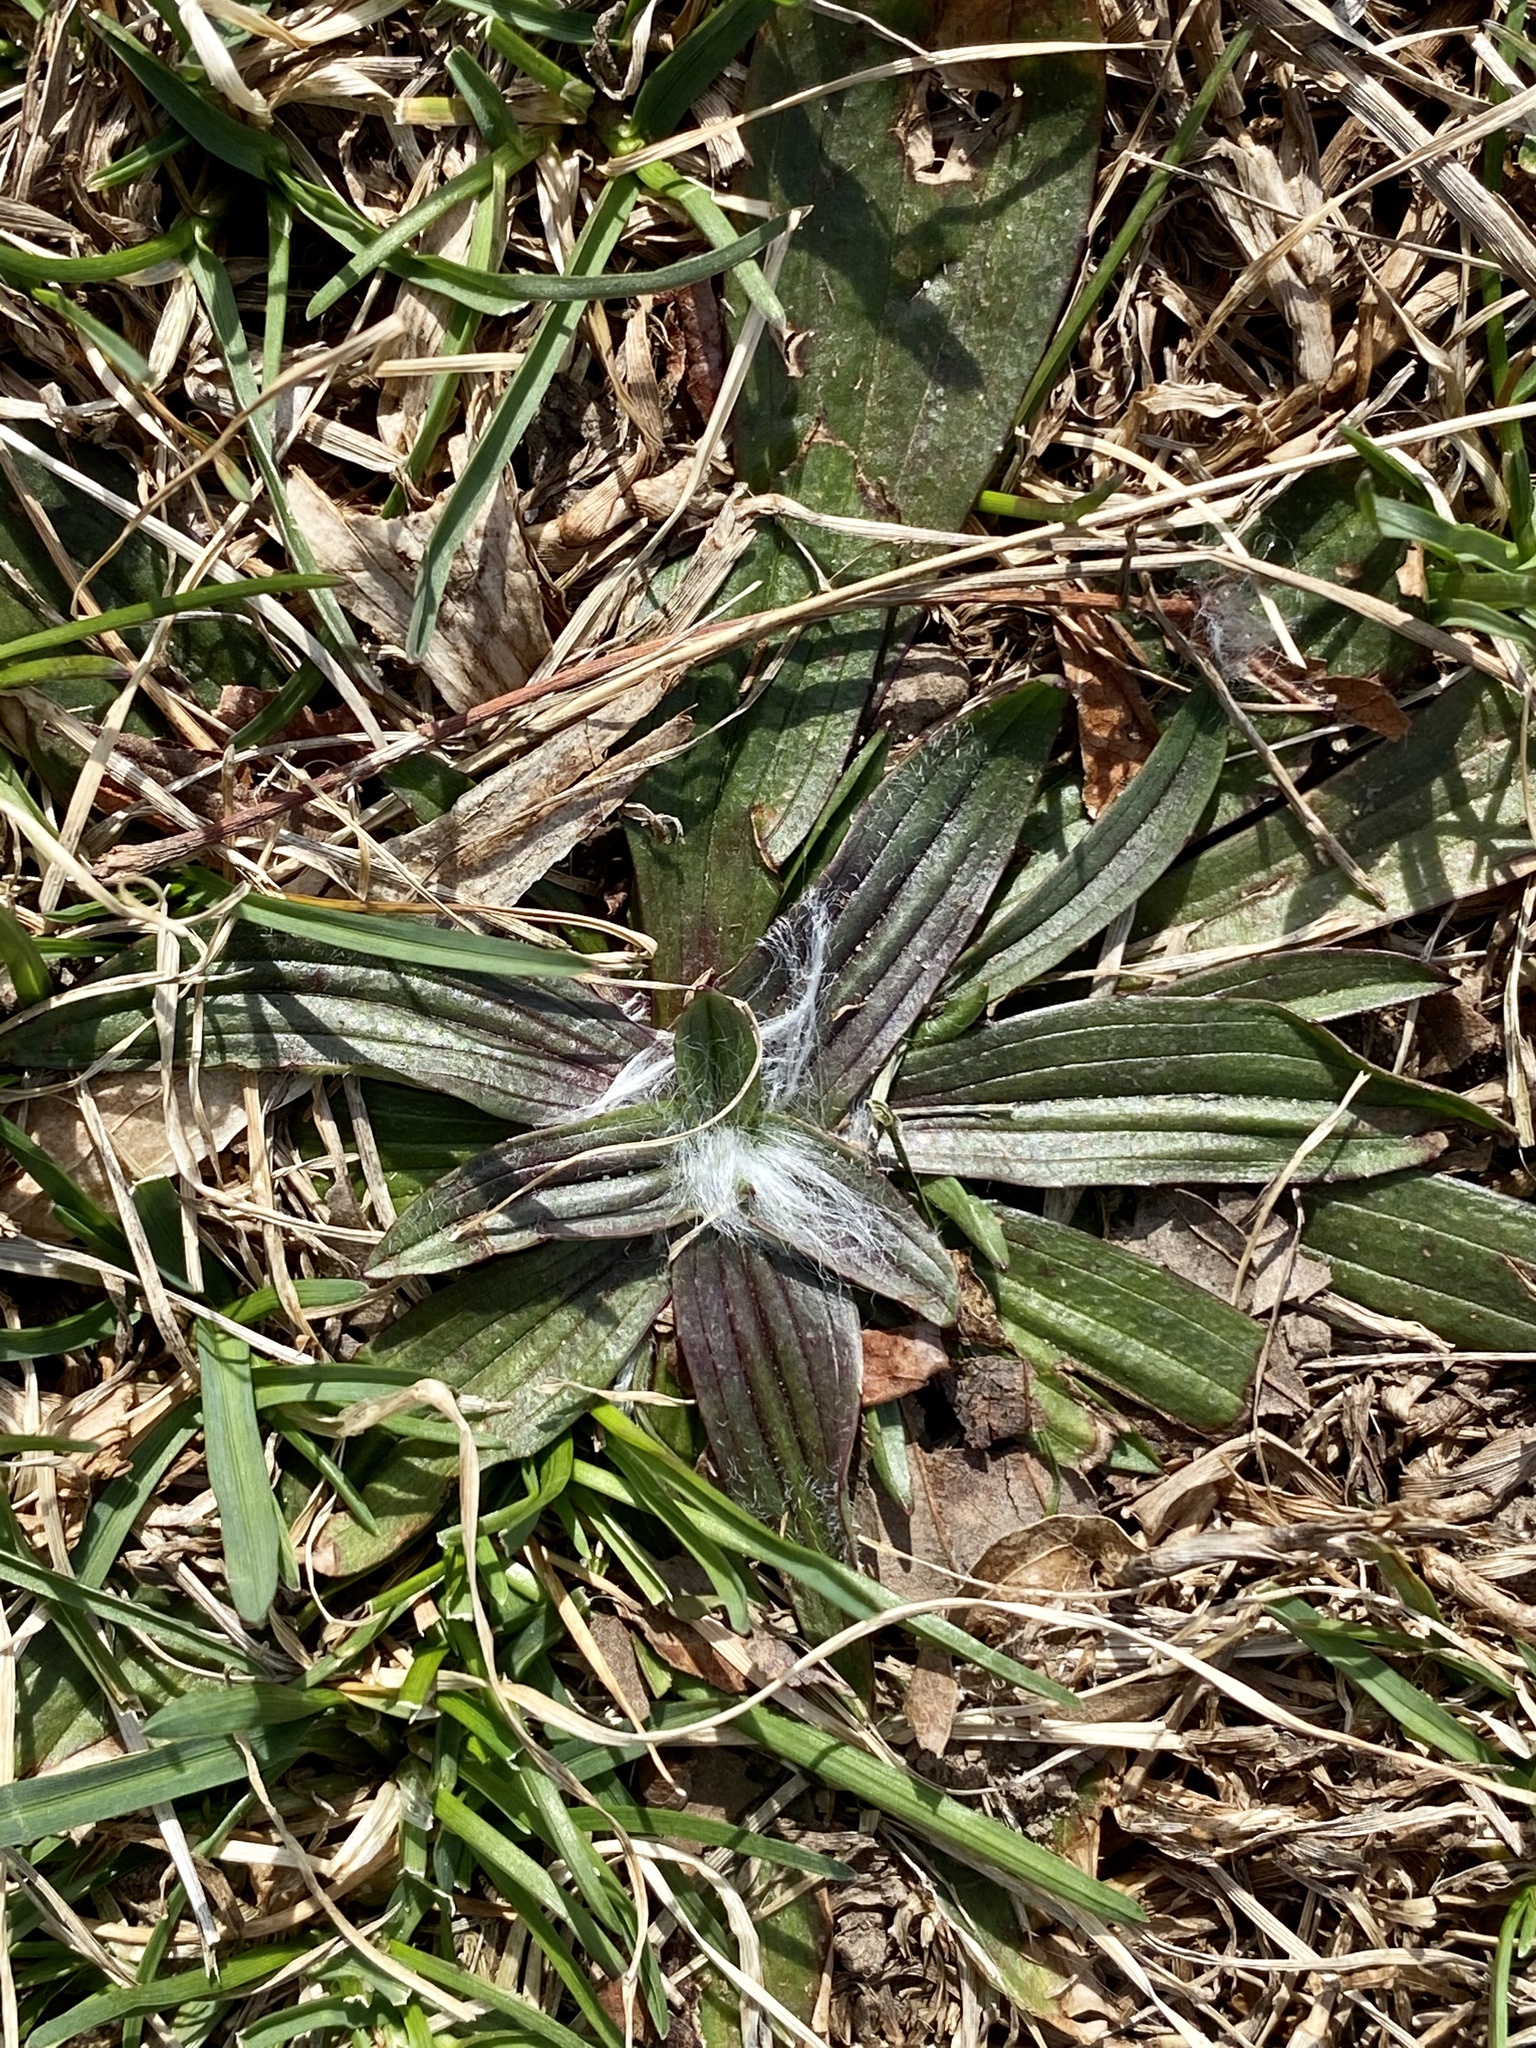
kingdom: Plantae
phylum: Tracheophyta
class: Magnoliopsida
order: Lamiales
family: Plantaginaceae
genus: Plantago
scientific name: Plantago lanceolata
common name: Ribwort plantain
